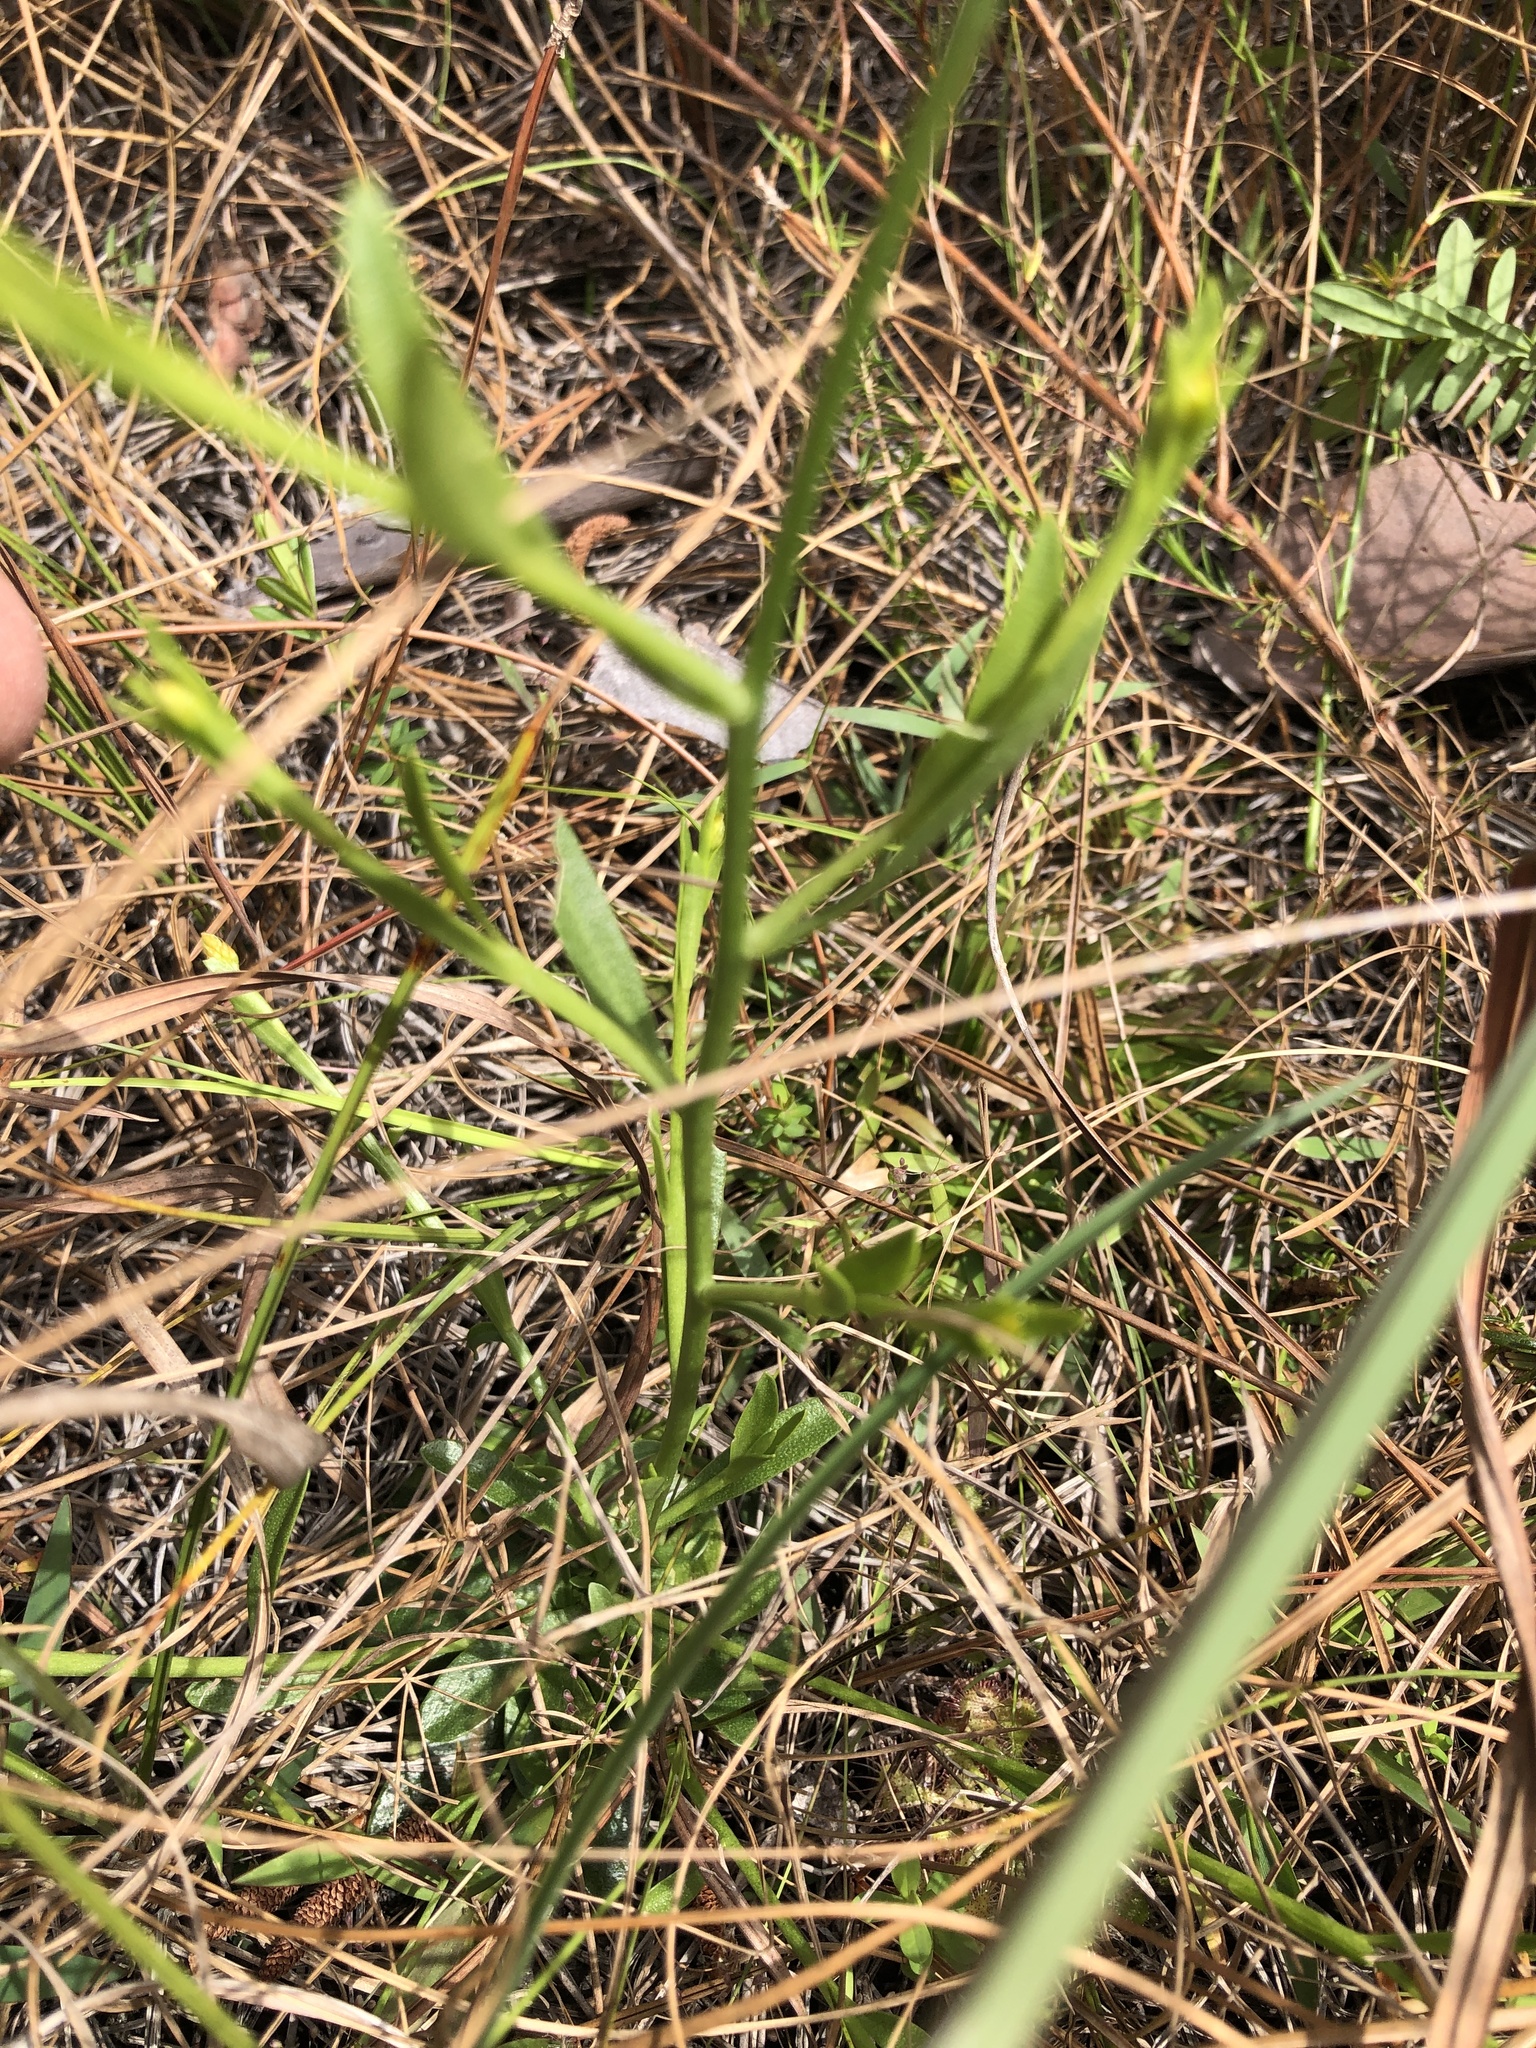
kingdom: Plantae
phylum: Tracheophyta
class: Magnoliopsida
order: Fabales
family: Polygalaceae
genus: Polygala
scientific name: Polygala lutea
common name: Orange milkwort
